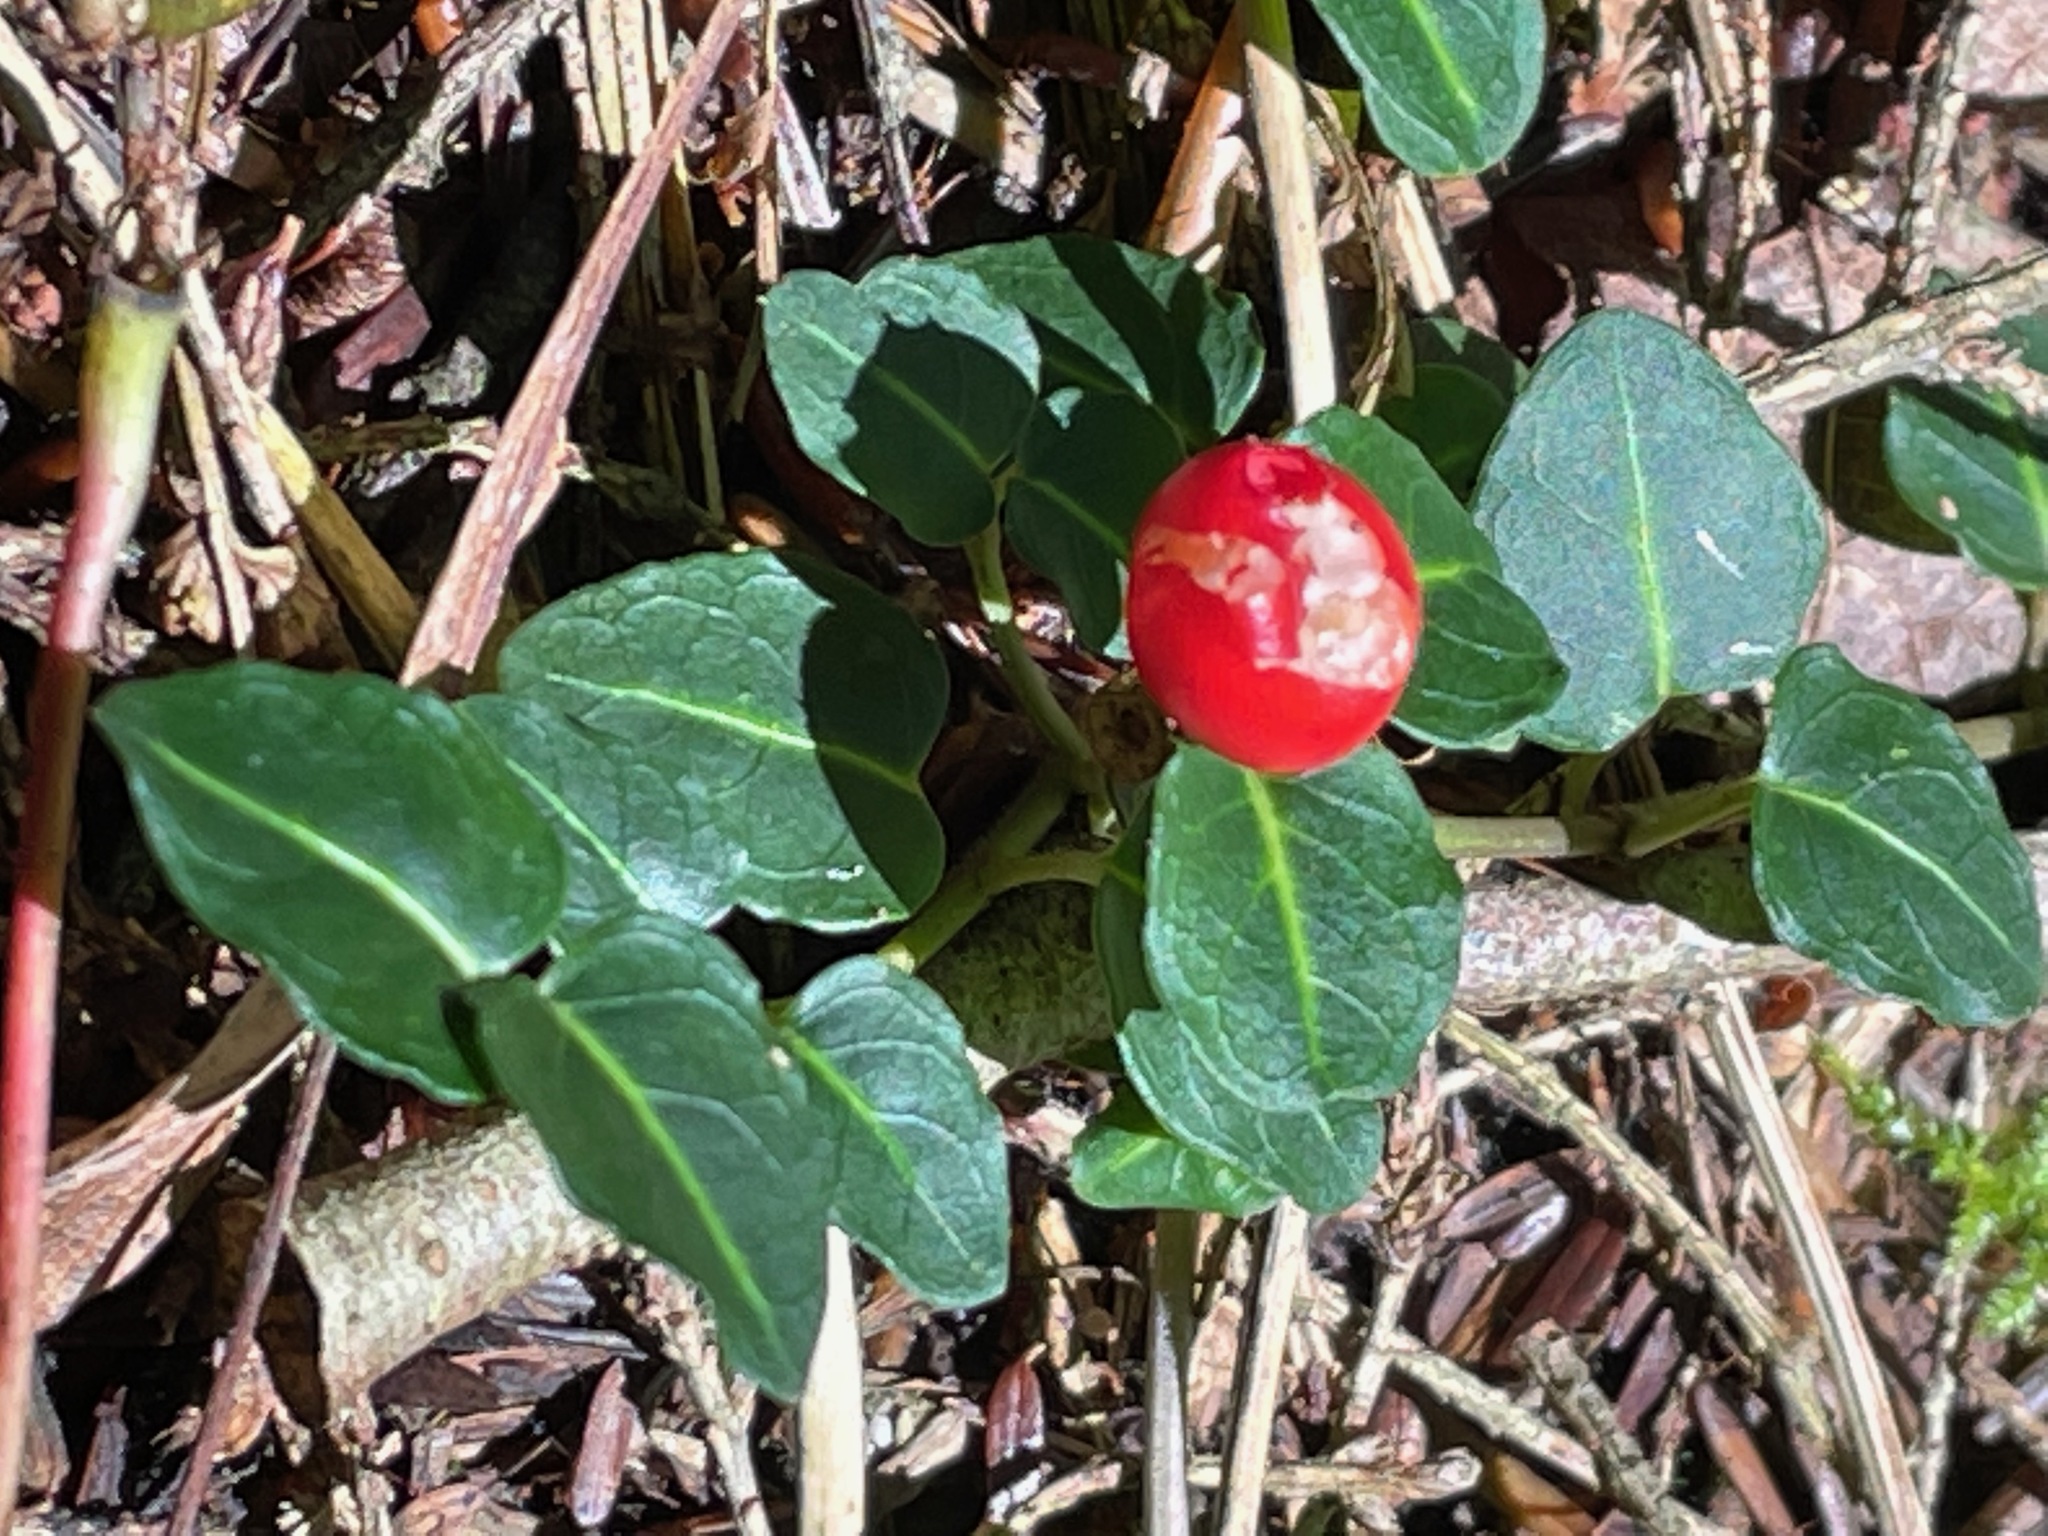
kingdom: Plantae
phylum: Tracheophyta
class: Magnoliopsida
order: Gentianales
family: Rubiaceae
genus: Mitchella
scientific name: Mitchella repens
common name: Partridge-berry
